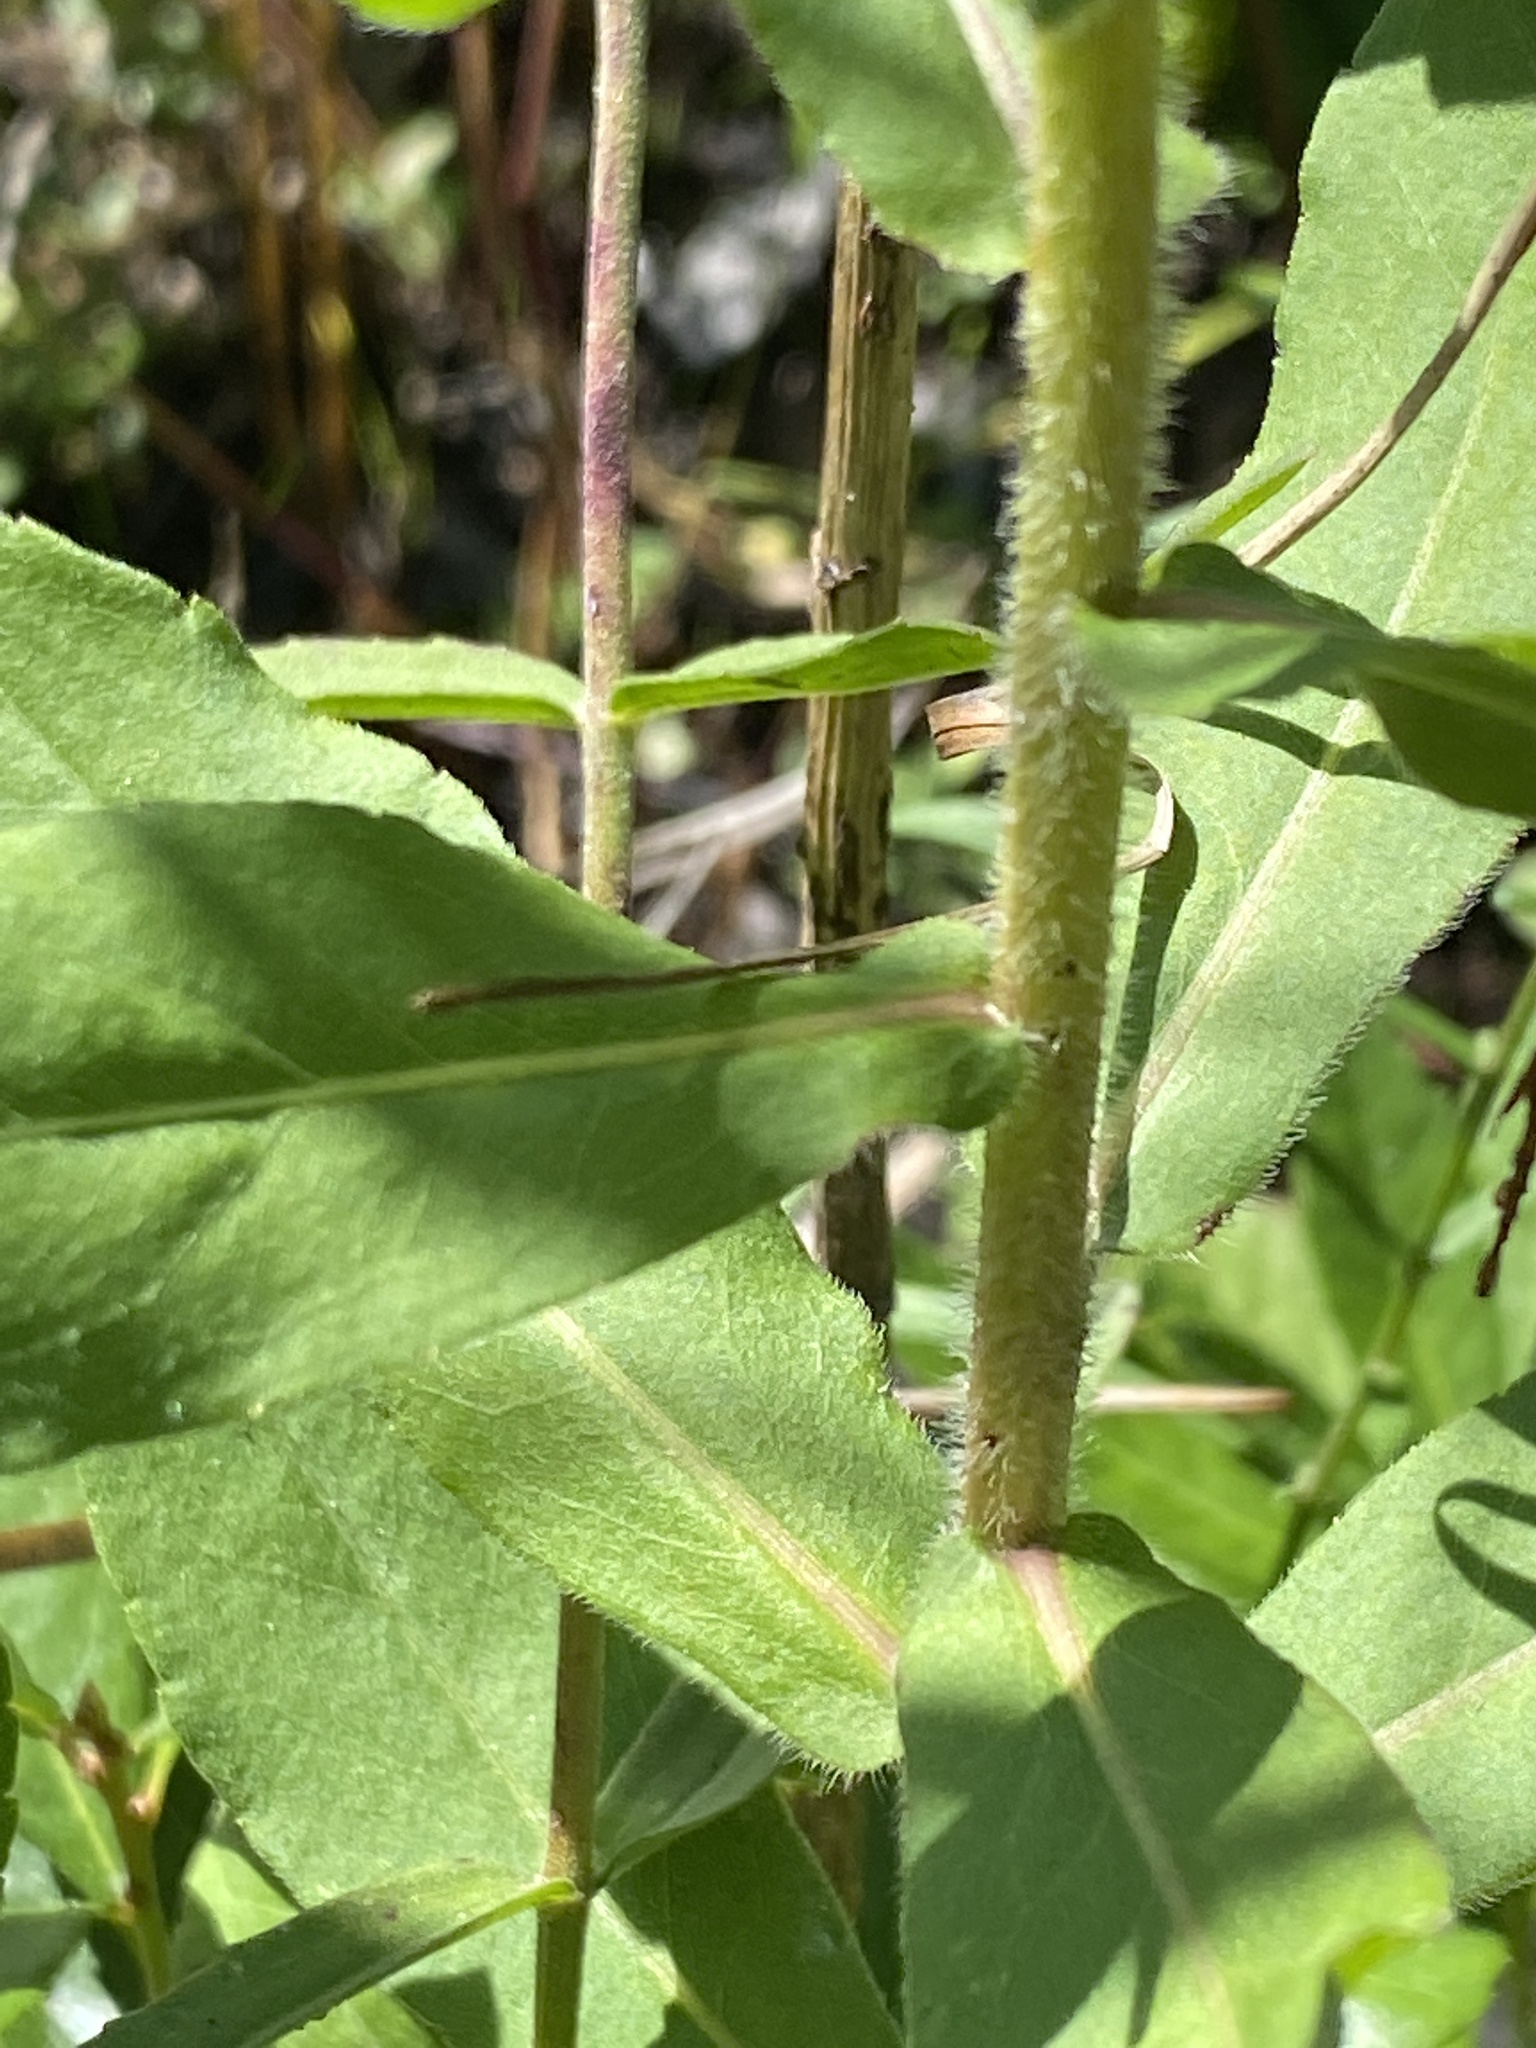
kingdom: Plantae
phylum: Tracheophyta
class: Magnoliopsida
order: Asterales
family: Asteraceae
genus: Solidago
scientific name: Solidago fistulosa
